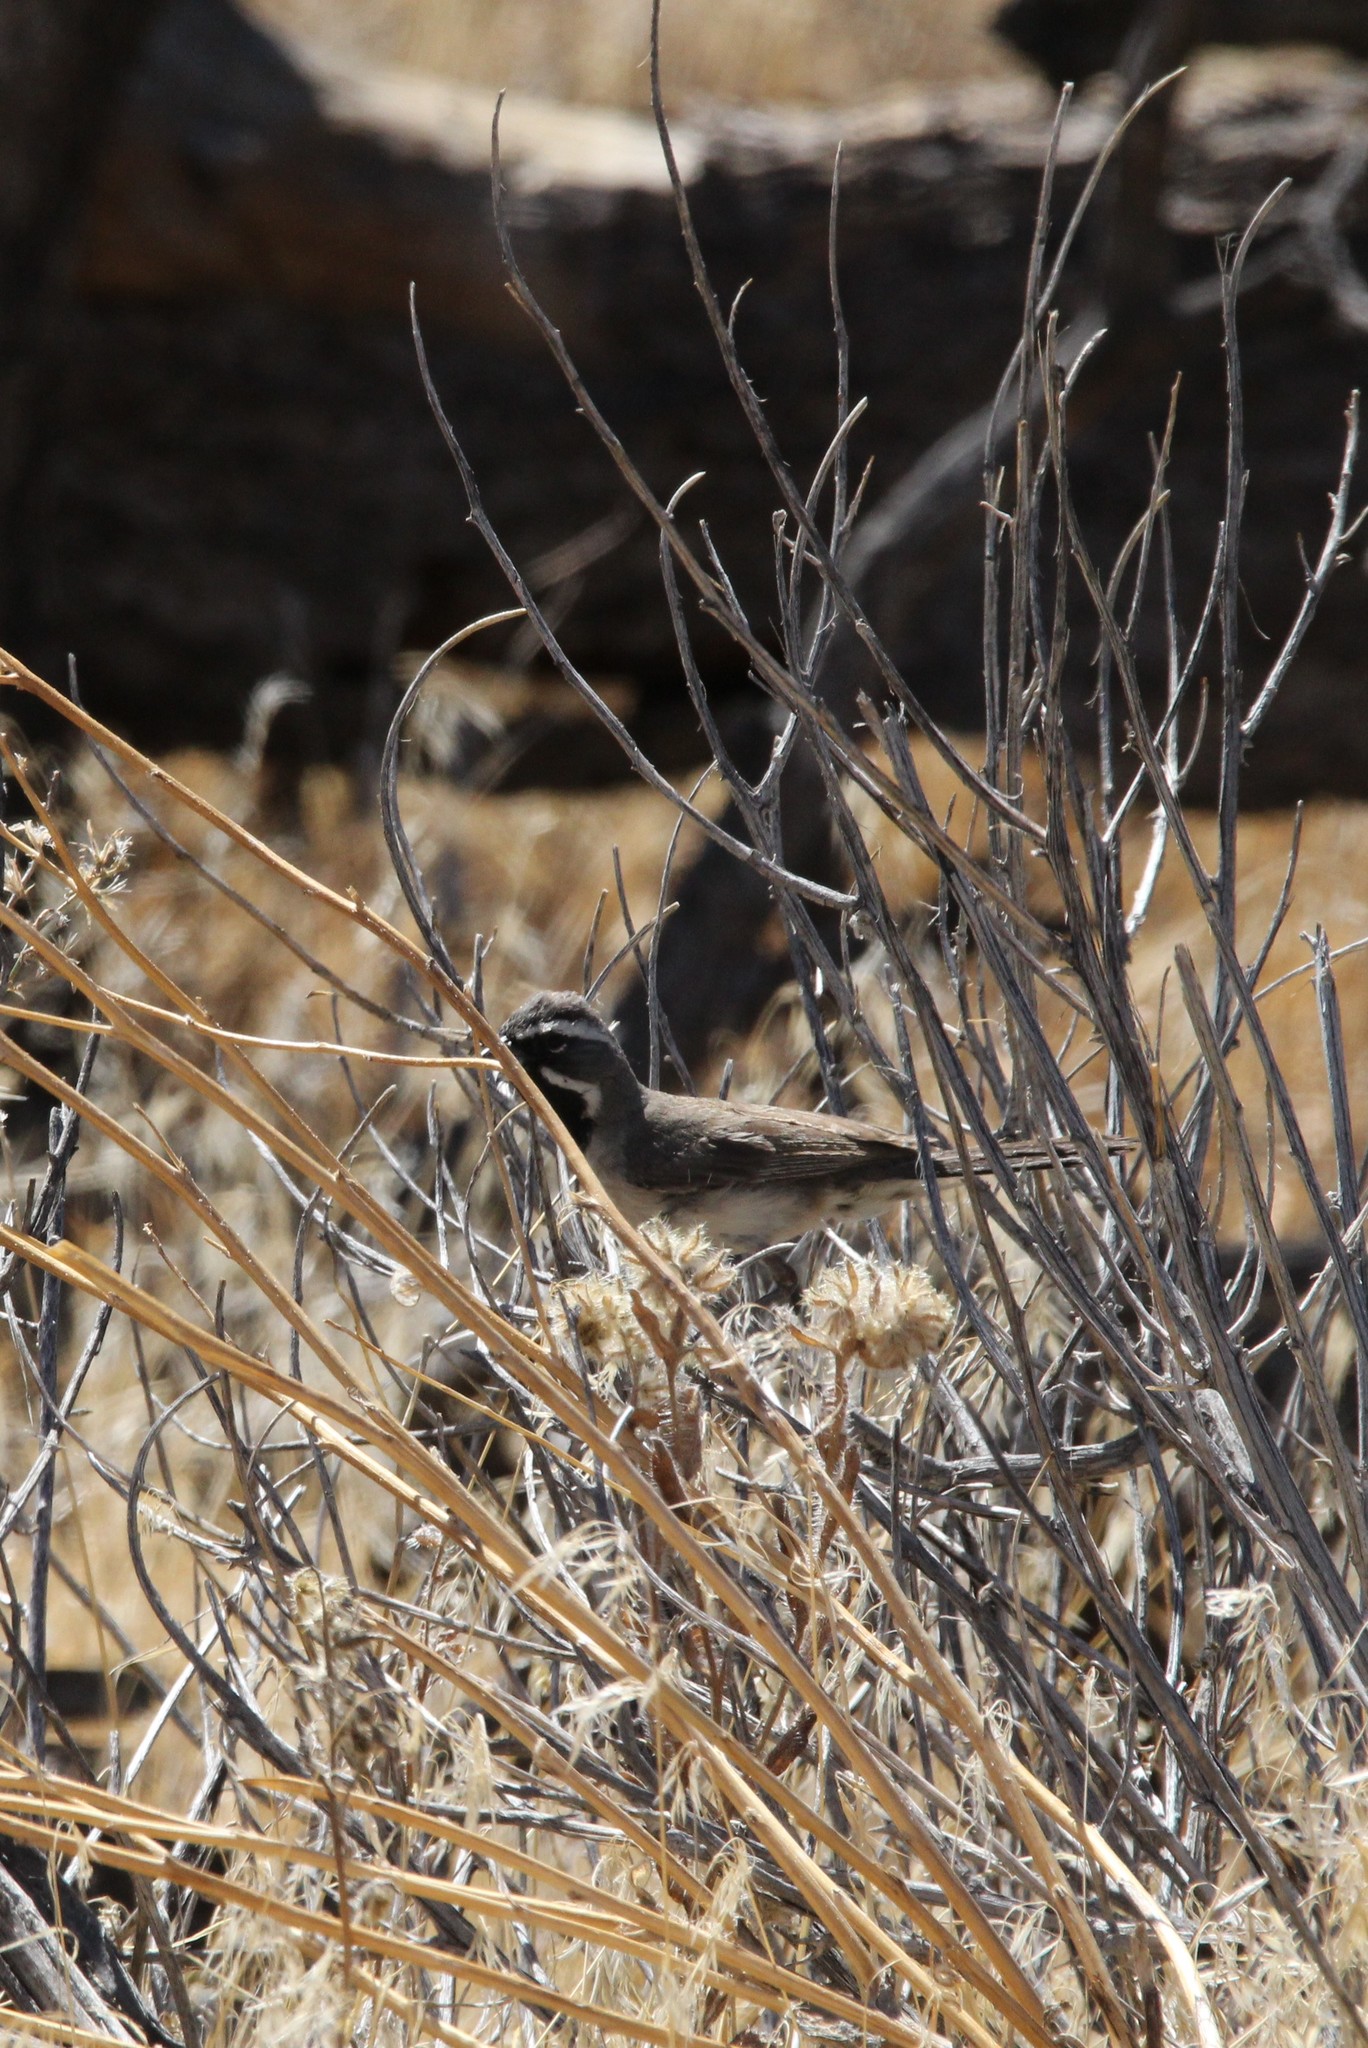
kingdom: Animalia
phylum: Chordata
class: Aves
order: Passeriformes
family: Passerellidae
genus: Amphispiza
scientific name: Amphispiza bilineata
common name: Black-throated sparrow
